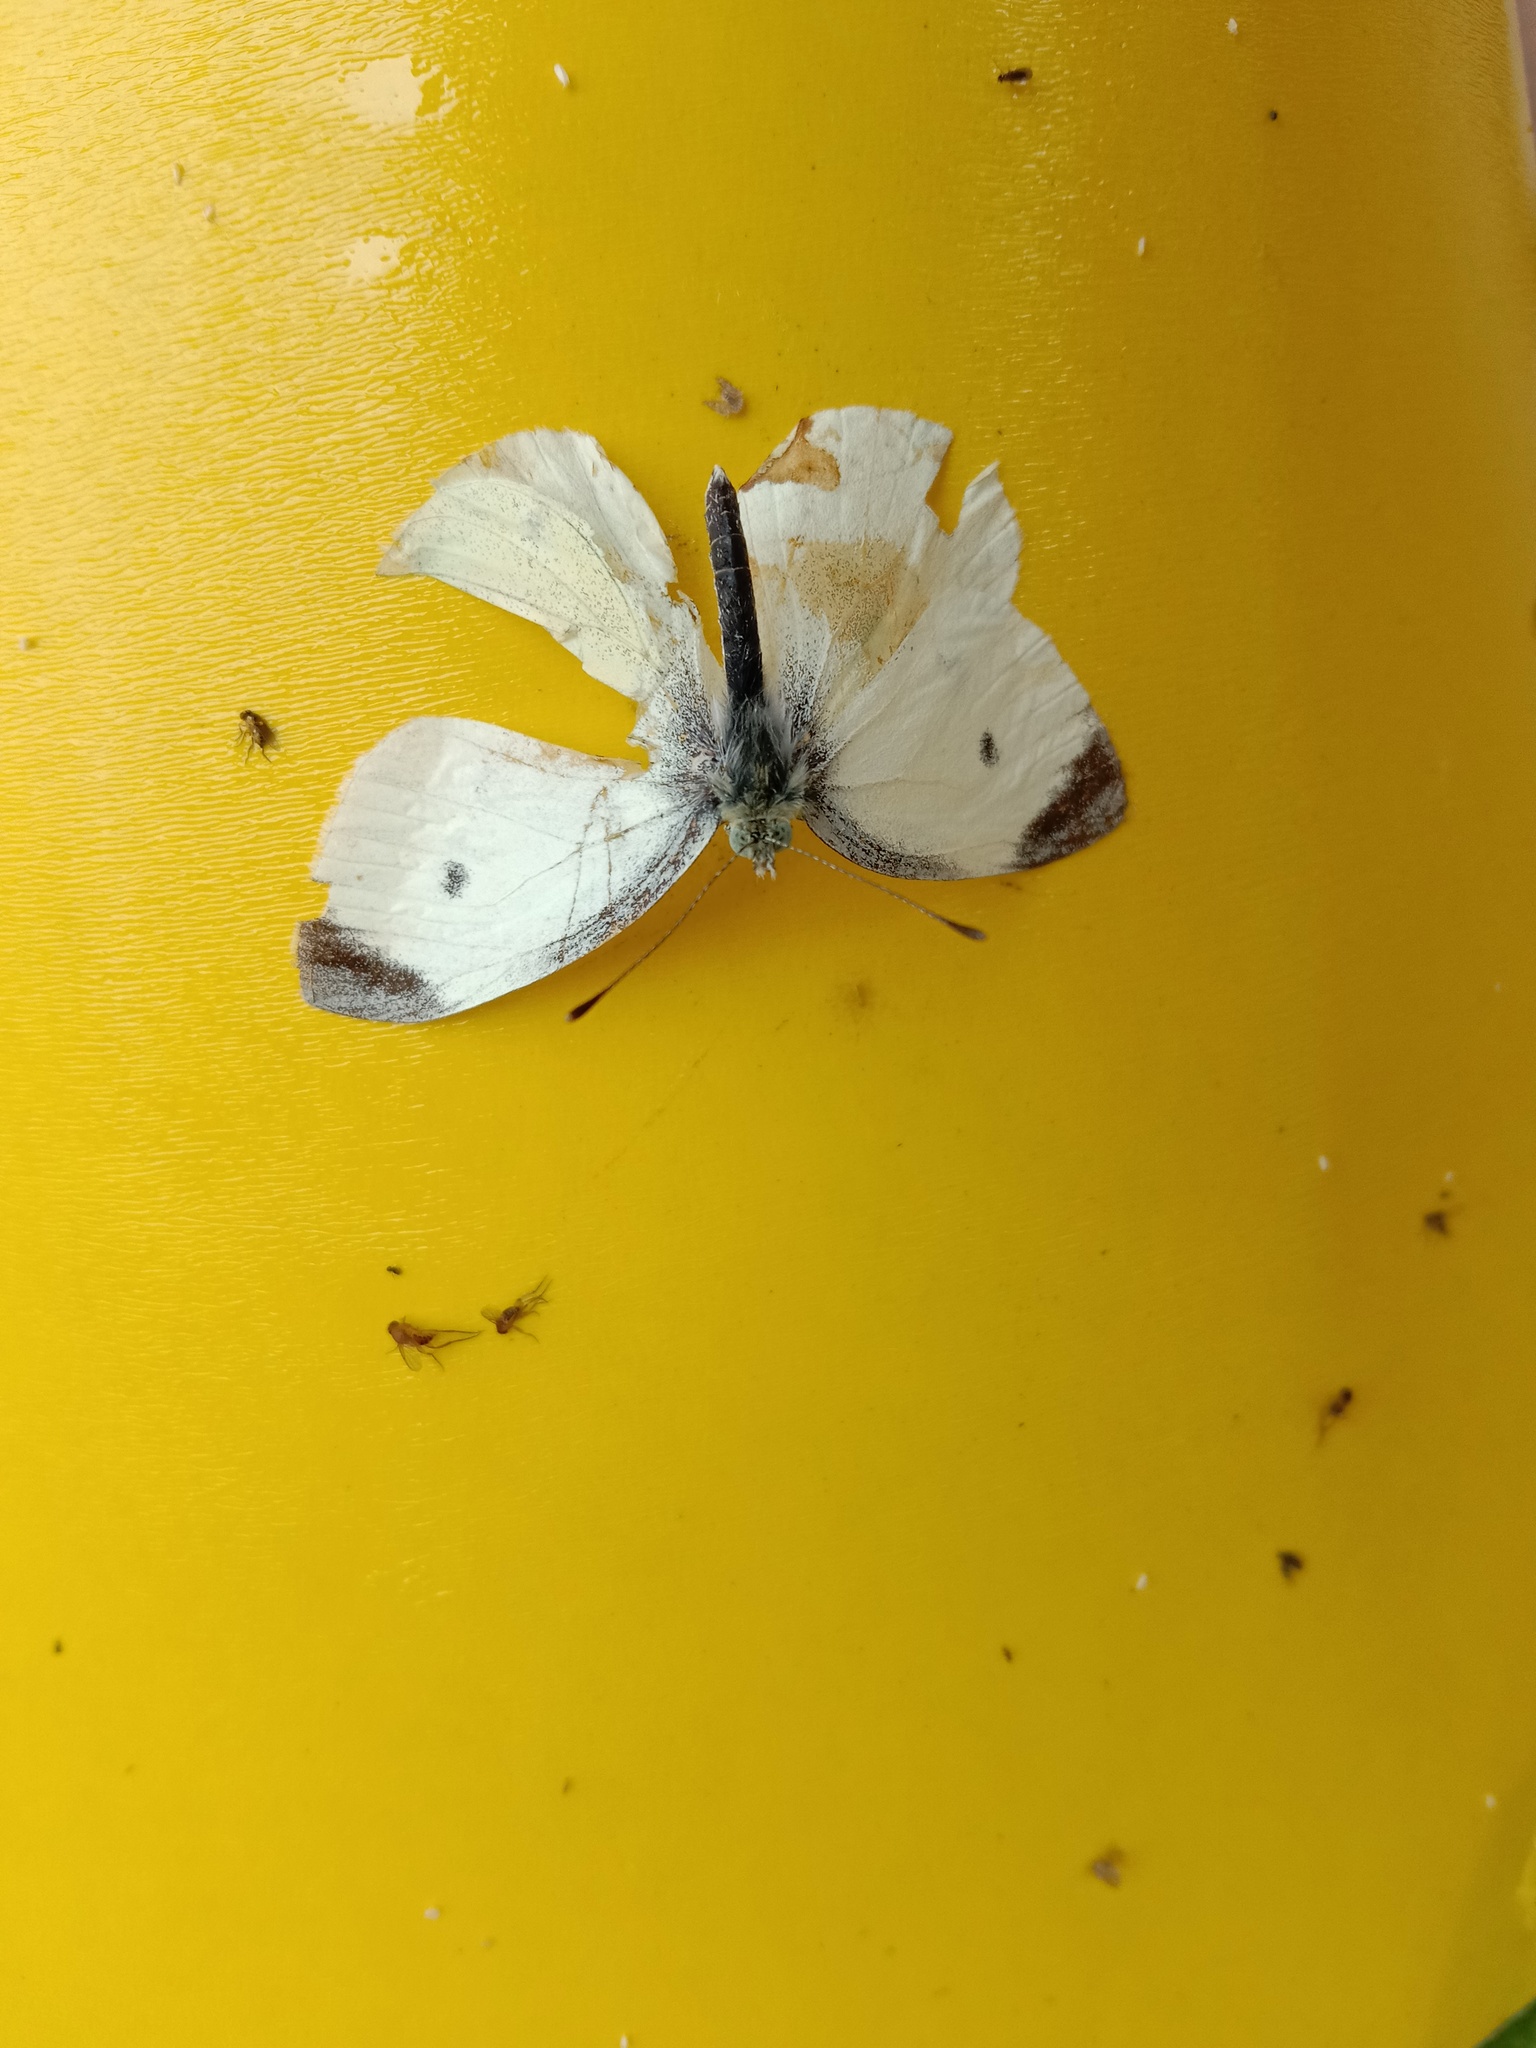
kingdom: Animalia
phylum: Arthropoda
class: Insecta
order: Lepidoptera
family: Pieridae
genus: Pieris
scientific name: Pieris rapae
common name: Small white
